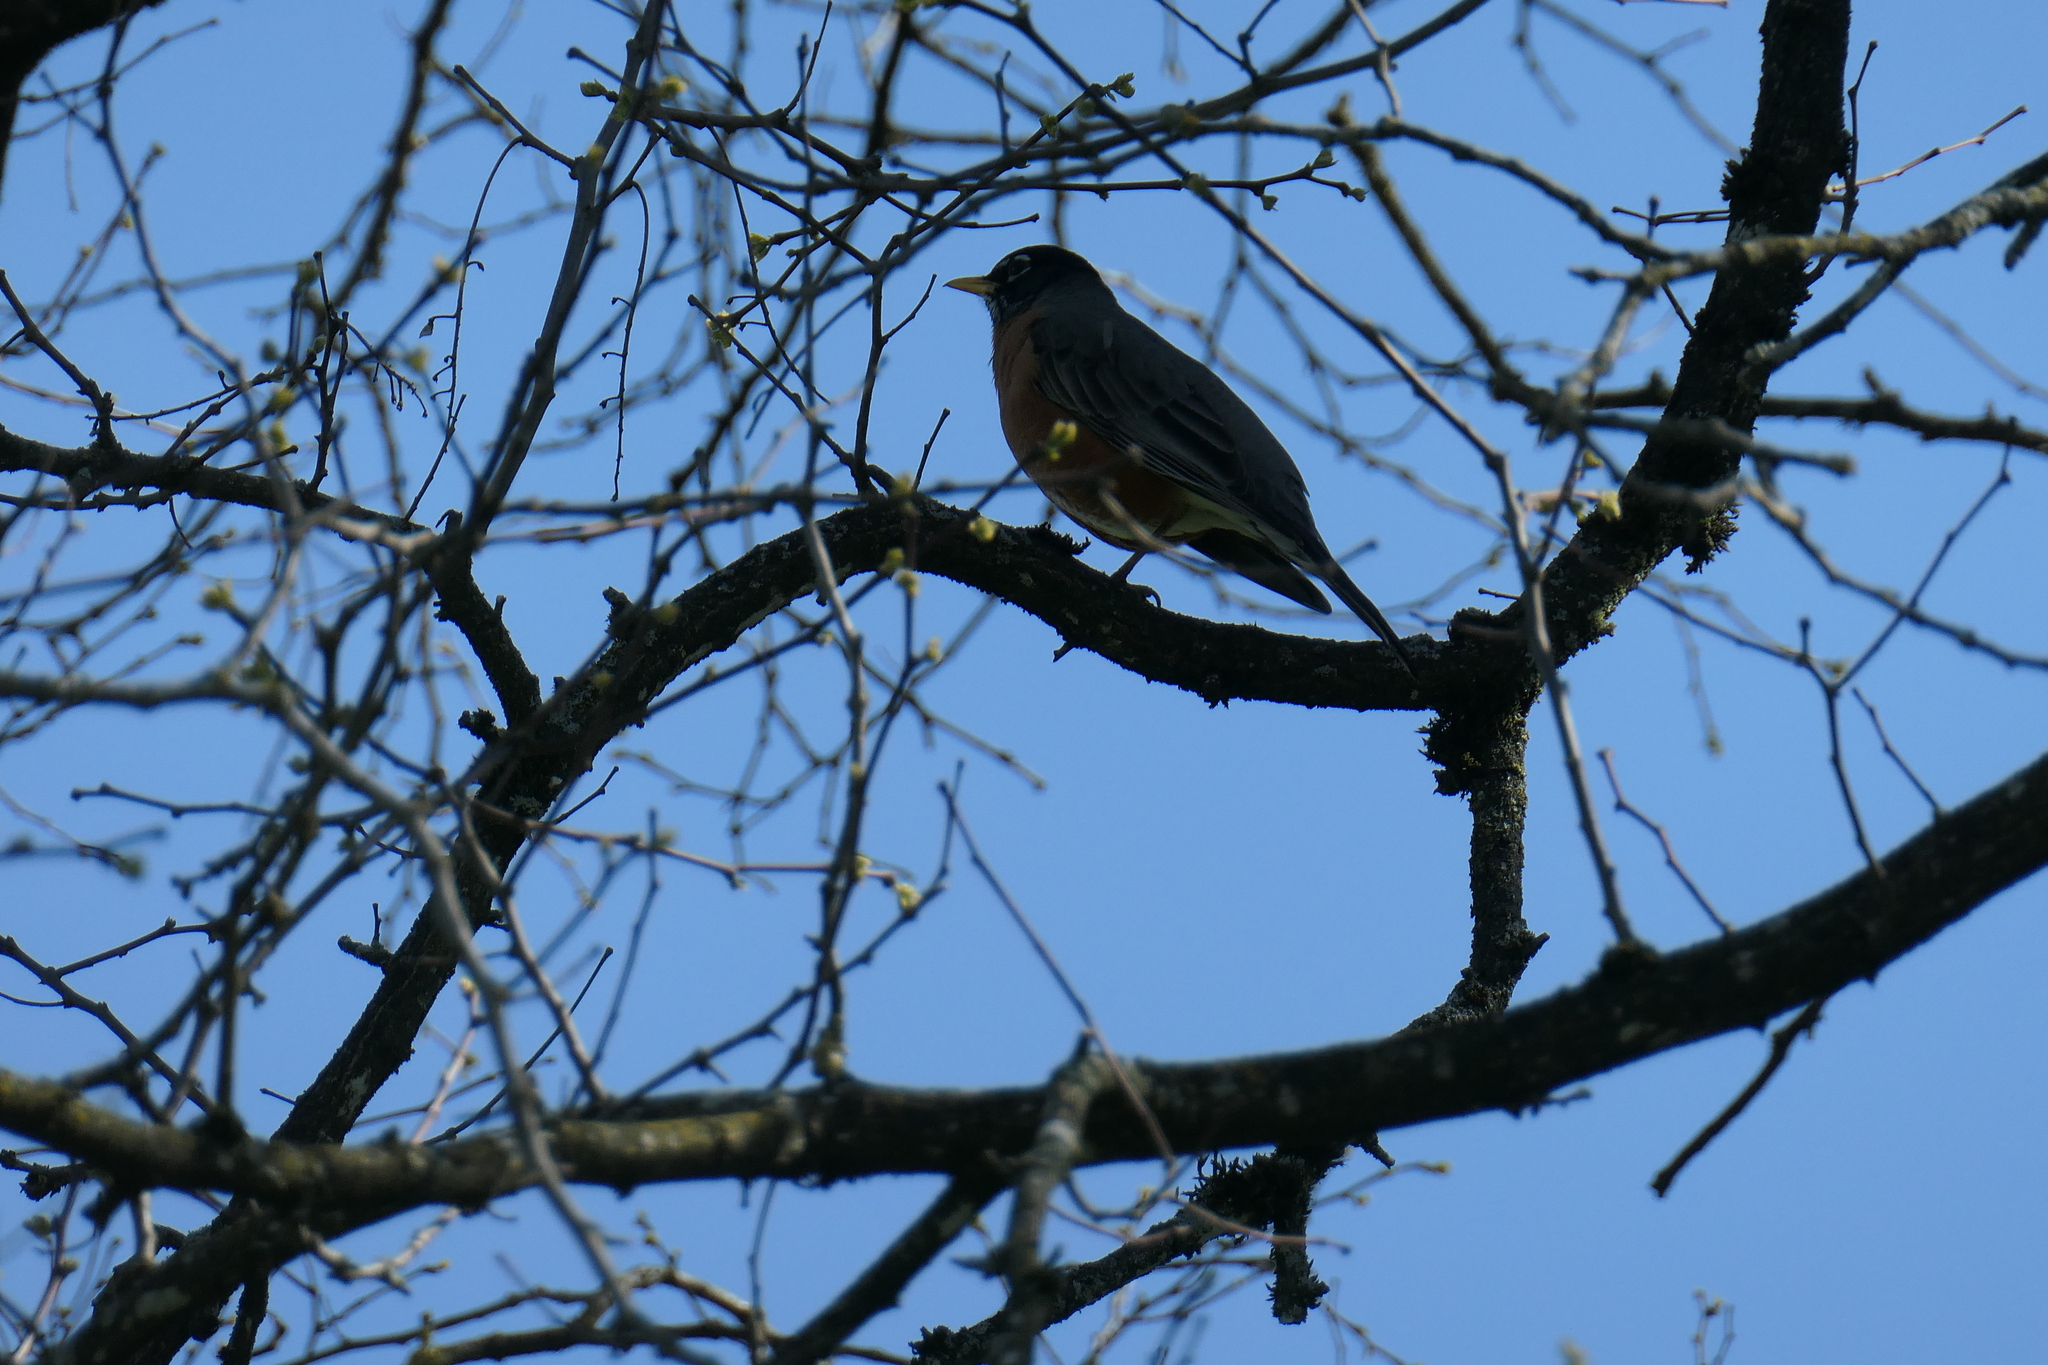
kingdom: Animalia
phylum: Chordata
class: Aves
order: Passeriformes
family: Turdidae
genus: Turdus
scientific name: Turdus migratorius
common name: American robin
